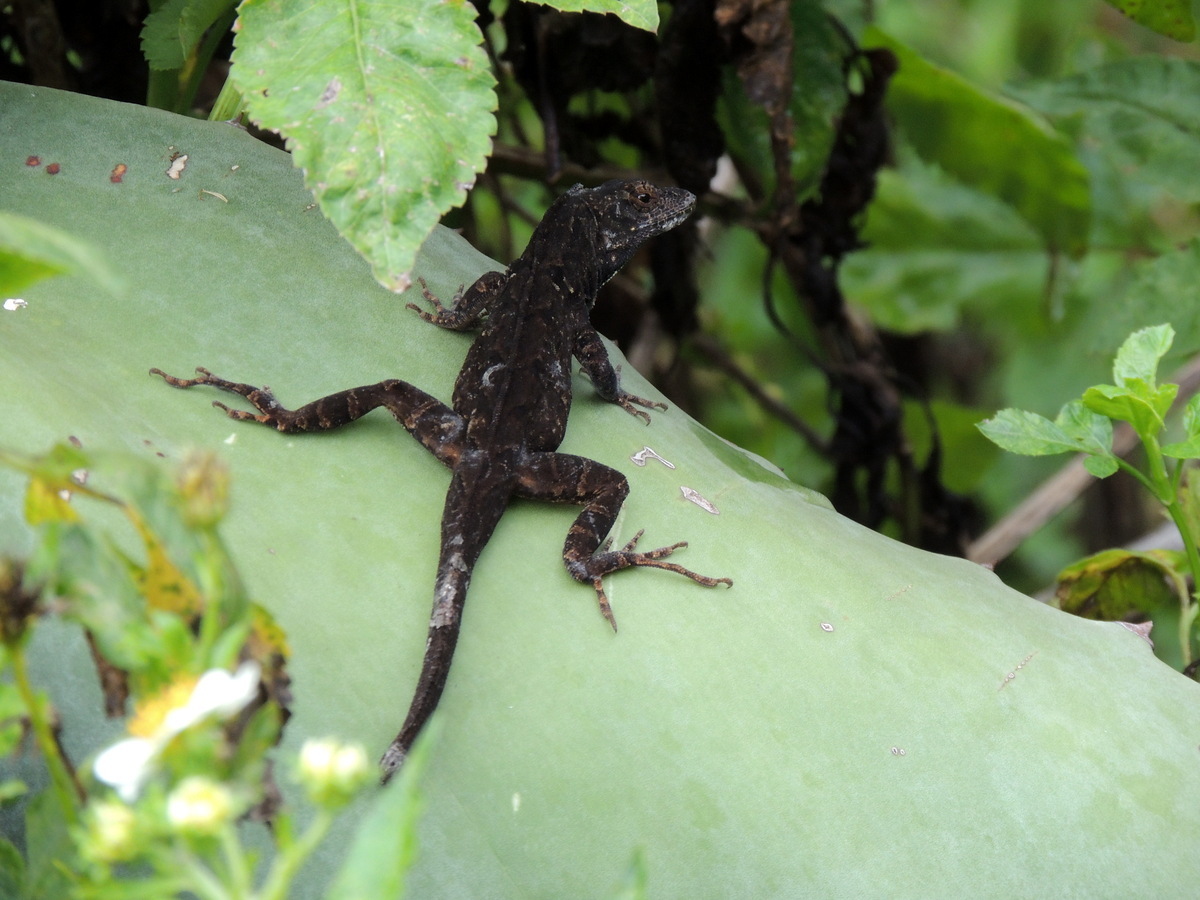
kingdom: Animalia
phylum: Chordata
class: Squamata
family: Dactyloidae
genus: Anolis
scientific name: Anolis sagrei
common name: Brown anole
